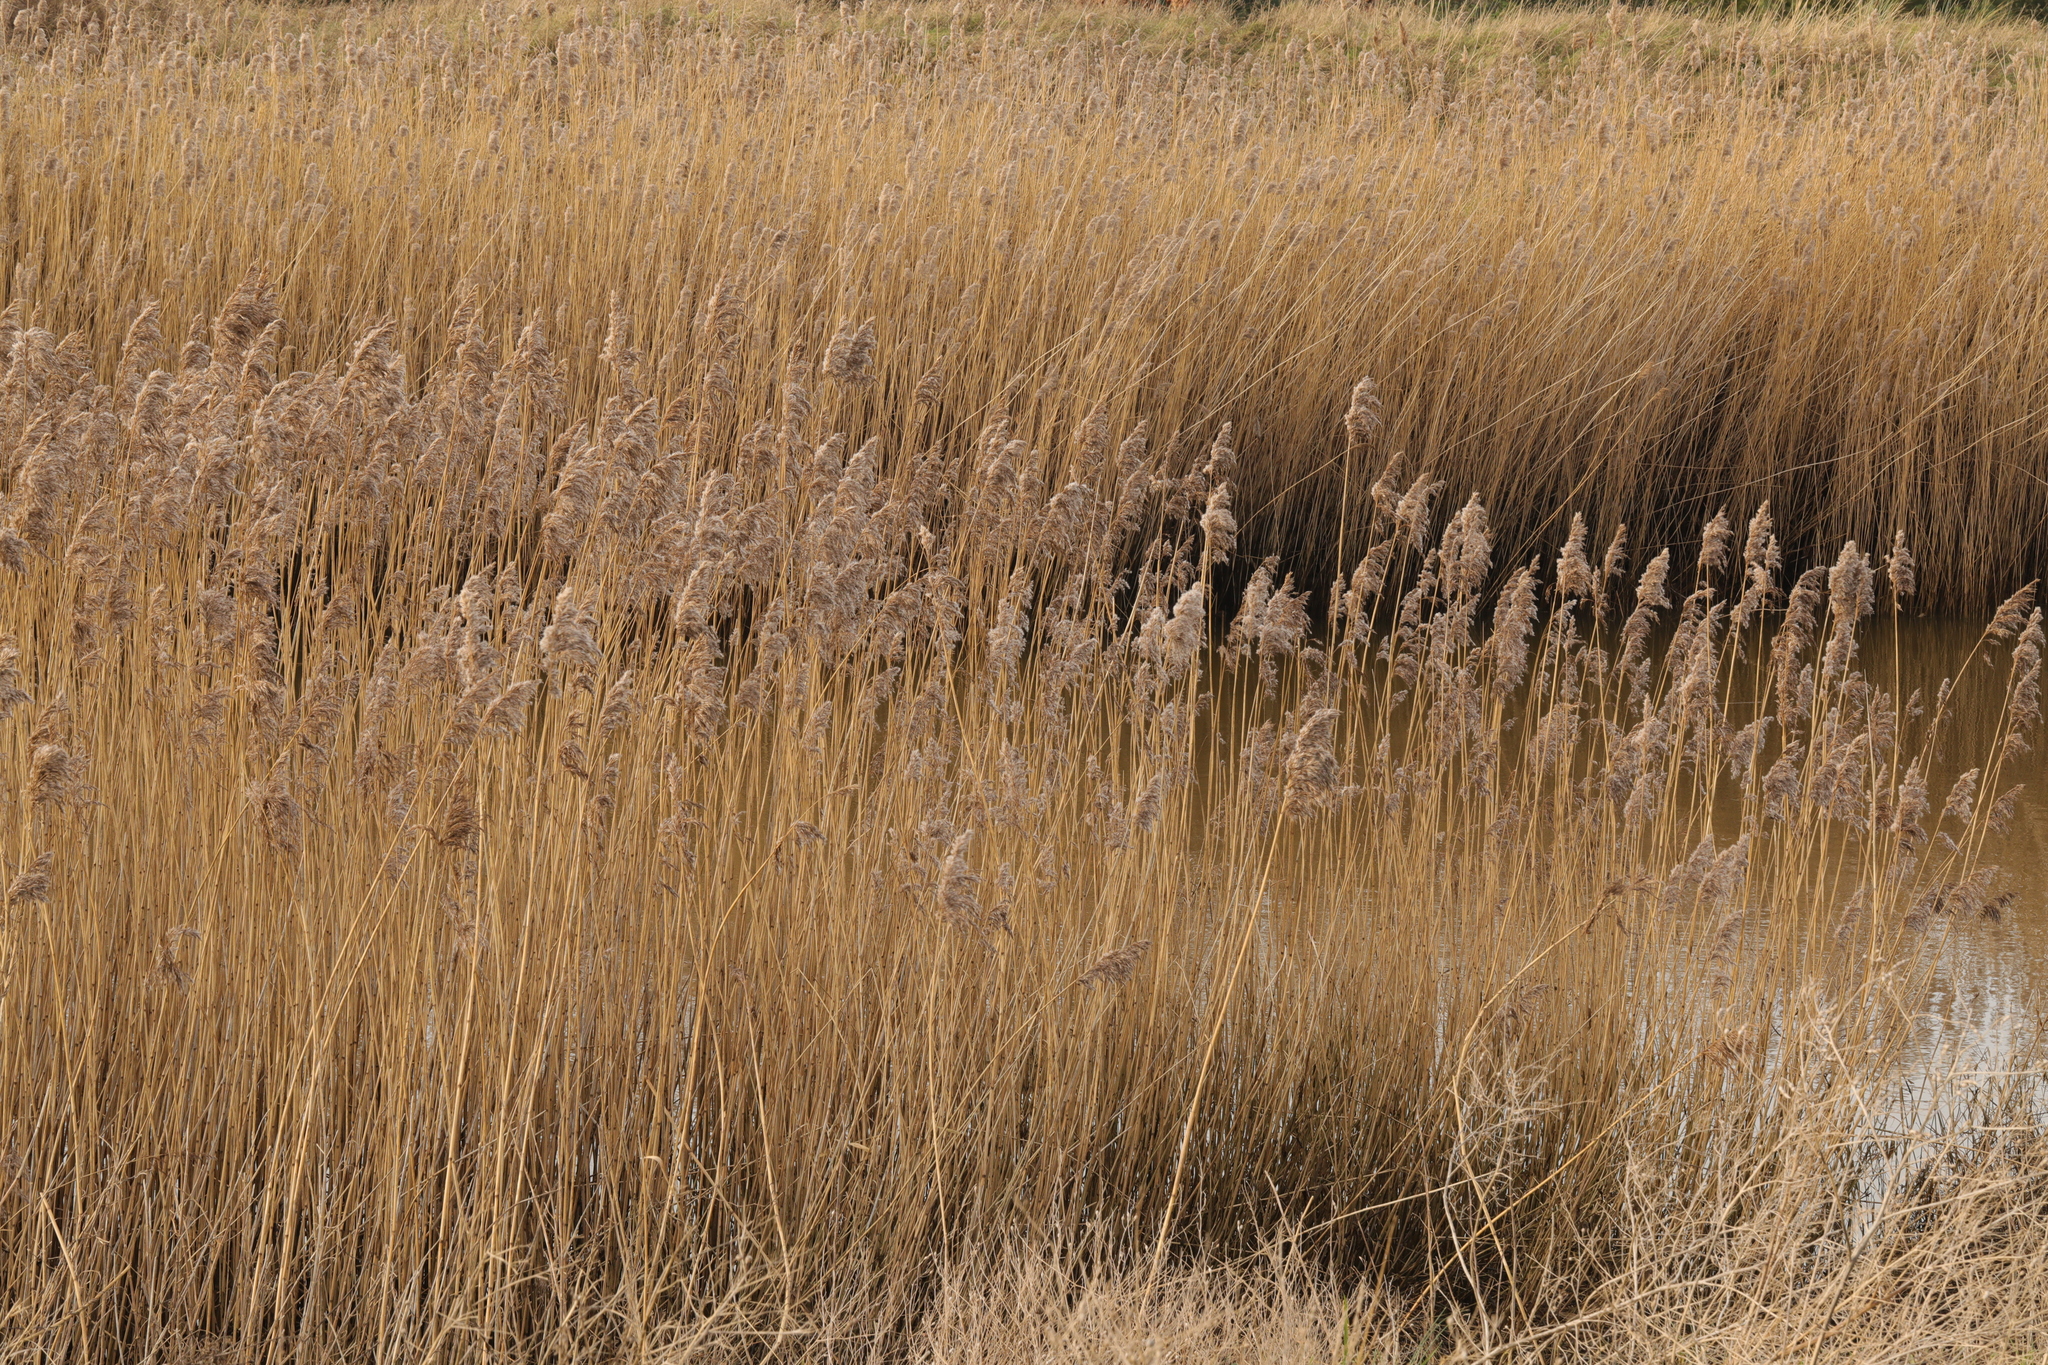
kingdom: Plantae
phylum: Tracheophyta
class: Liliopsida
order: Poales
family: Poaceae
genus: Phragmites
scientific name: Phragmites australis
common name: Common reed
